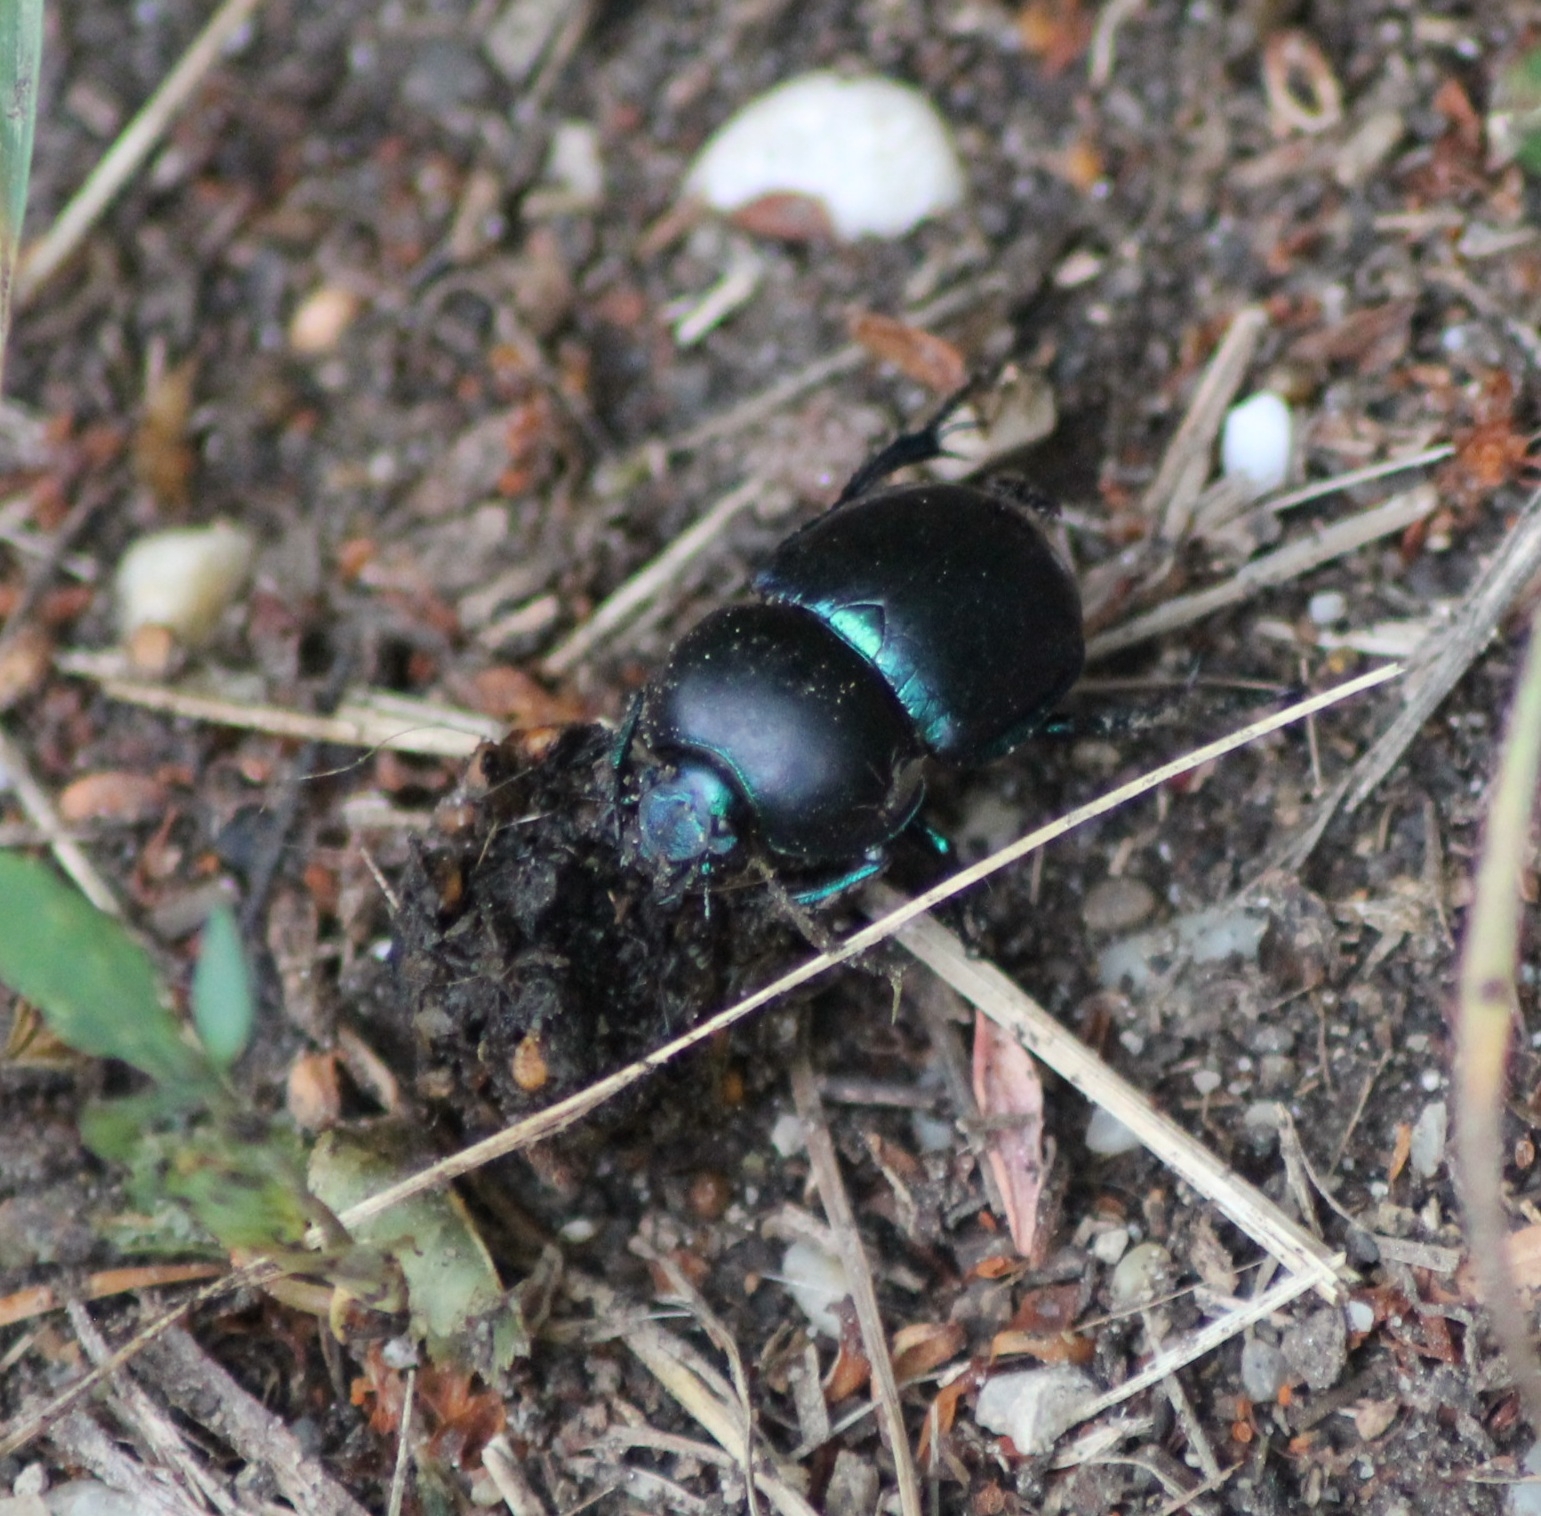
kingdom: Animalia
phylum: Arthropoda
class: Insecta
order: Coleoptera
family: Geotrupidae
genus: Trypocopris
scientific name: Trypocopris vernalis
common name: Spring dumbledor
